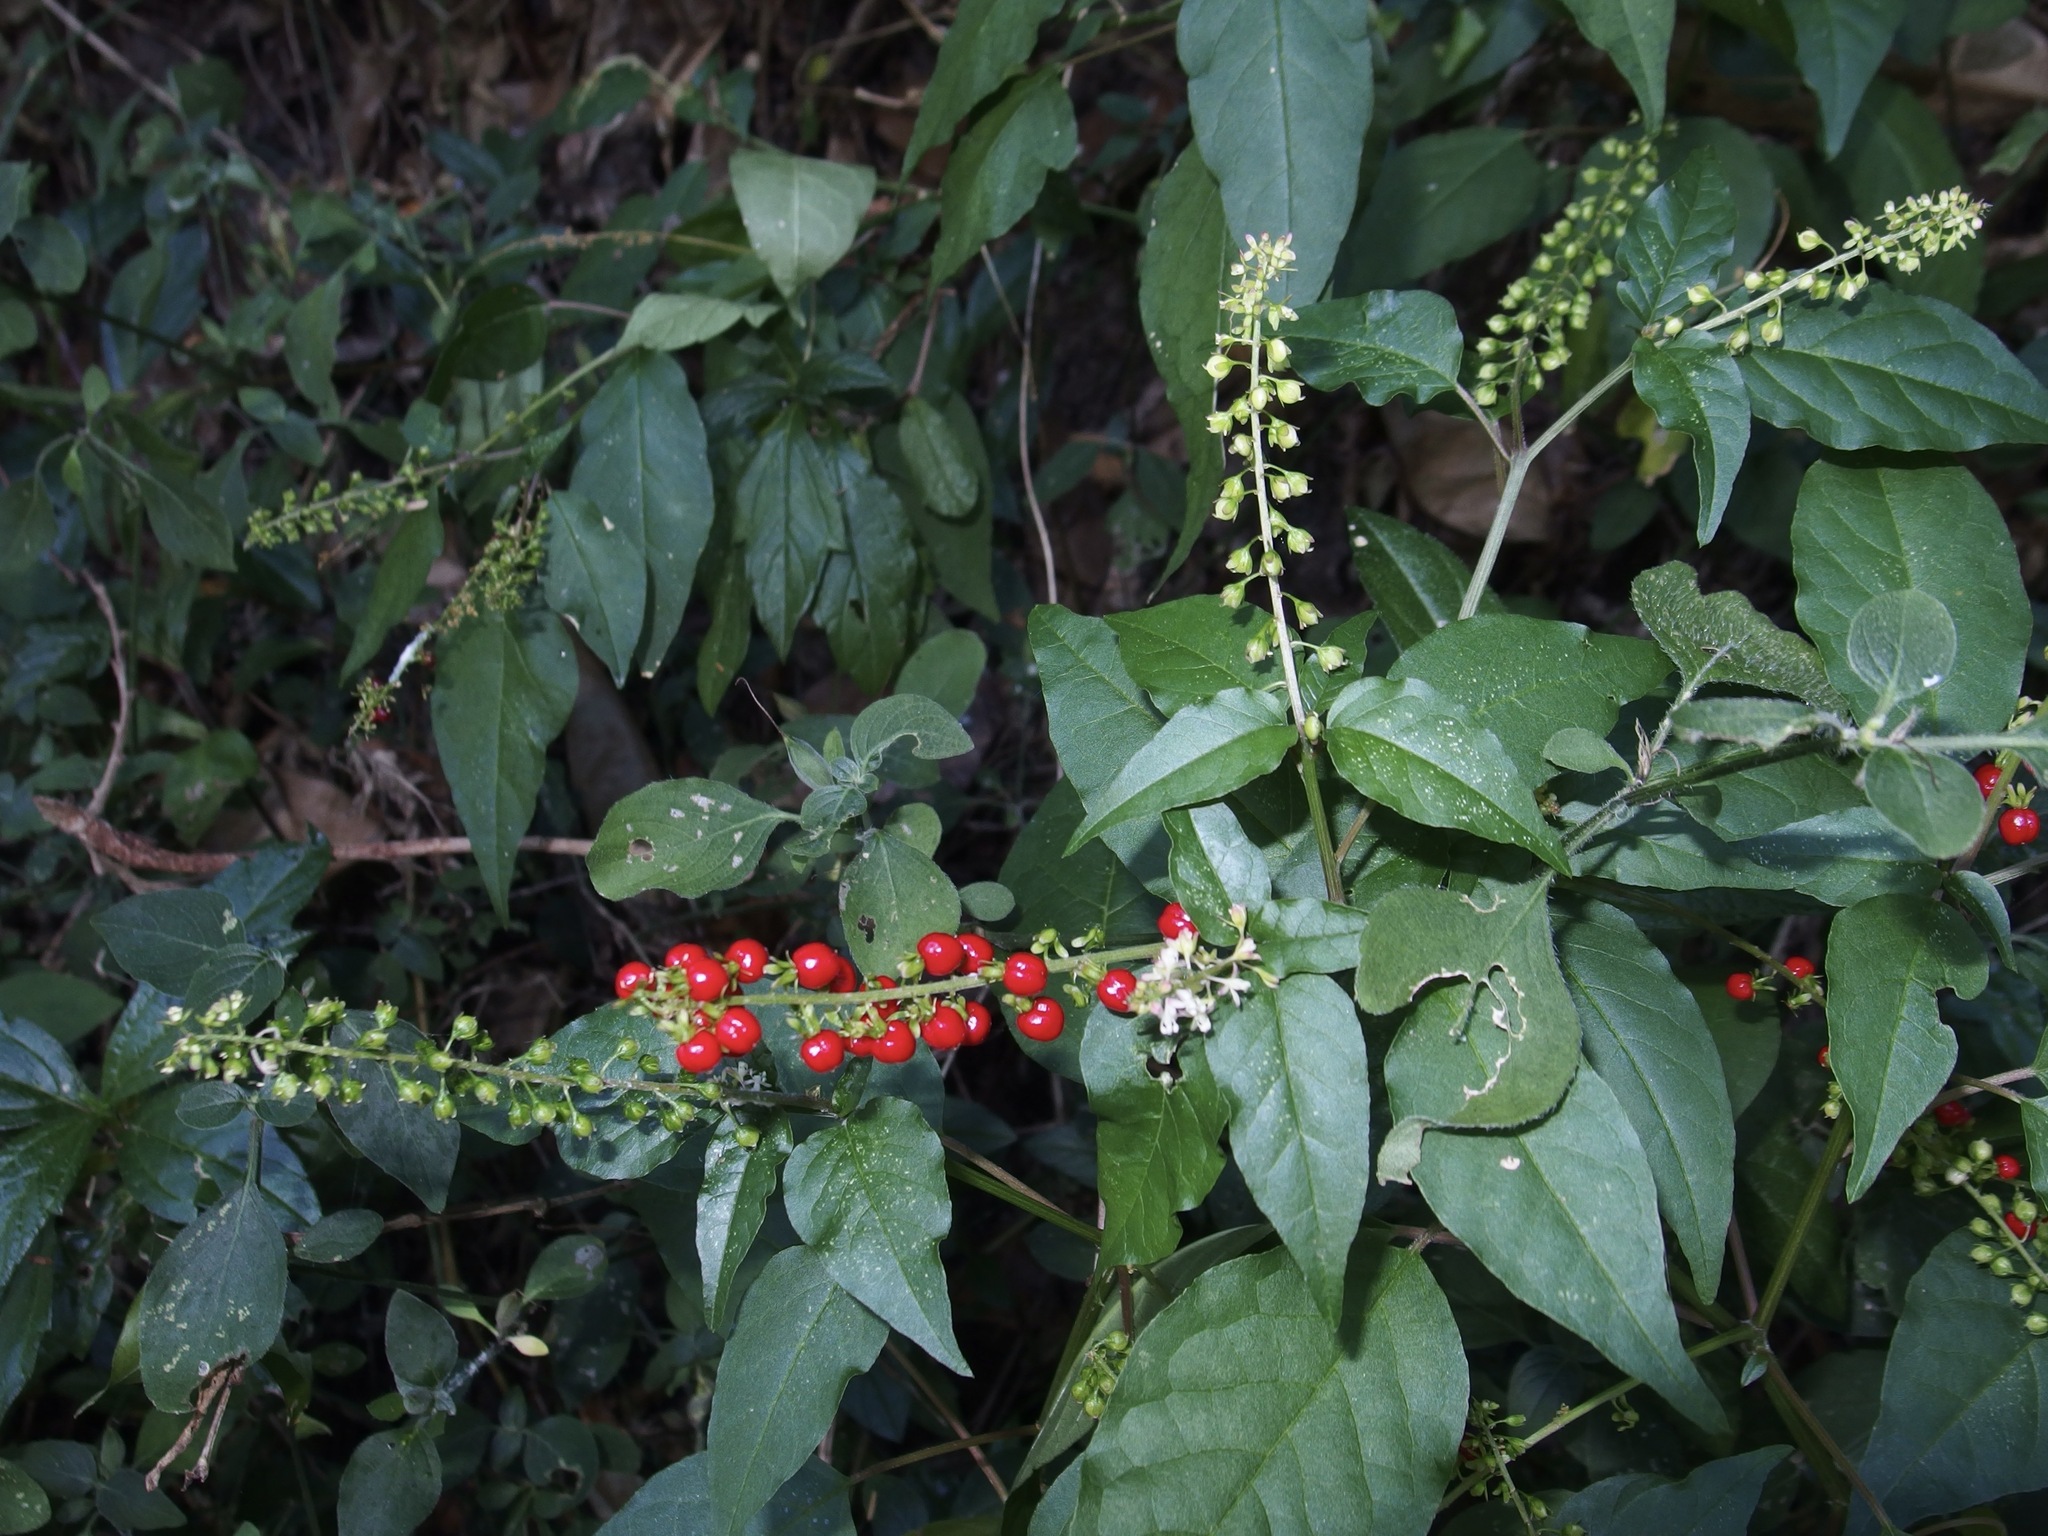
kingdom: Plantae
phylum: Tracheophyta
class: Magnoliopsida
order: Caryophyllales
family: Phytolaccaceae
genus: Rivina
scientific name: Rivina humilis
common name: Rougeplant
